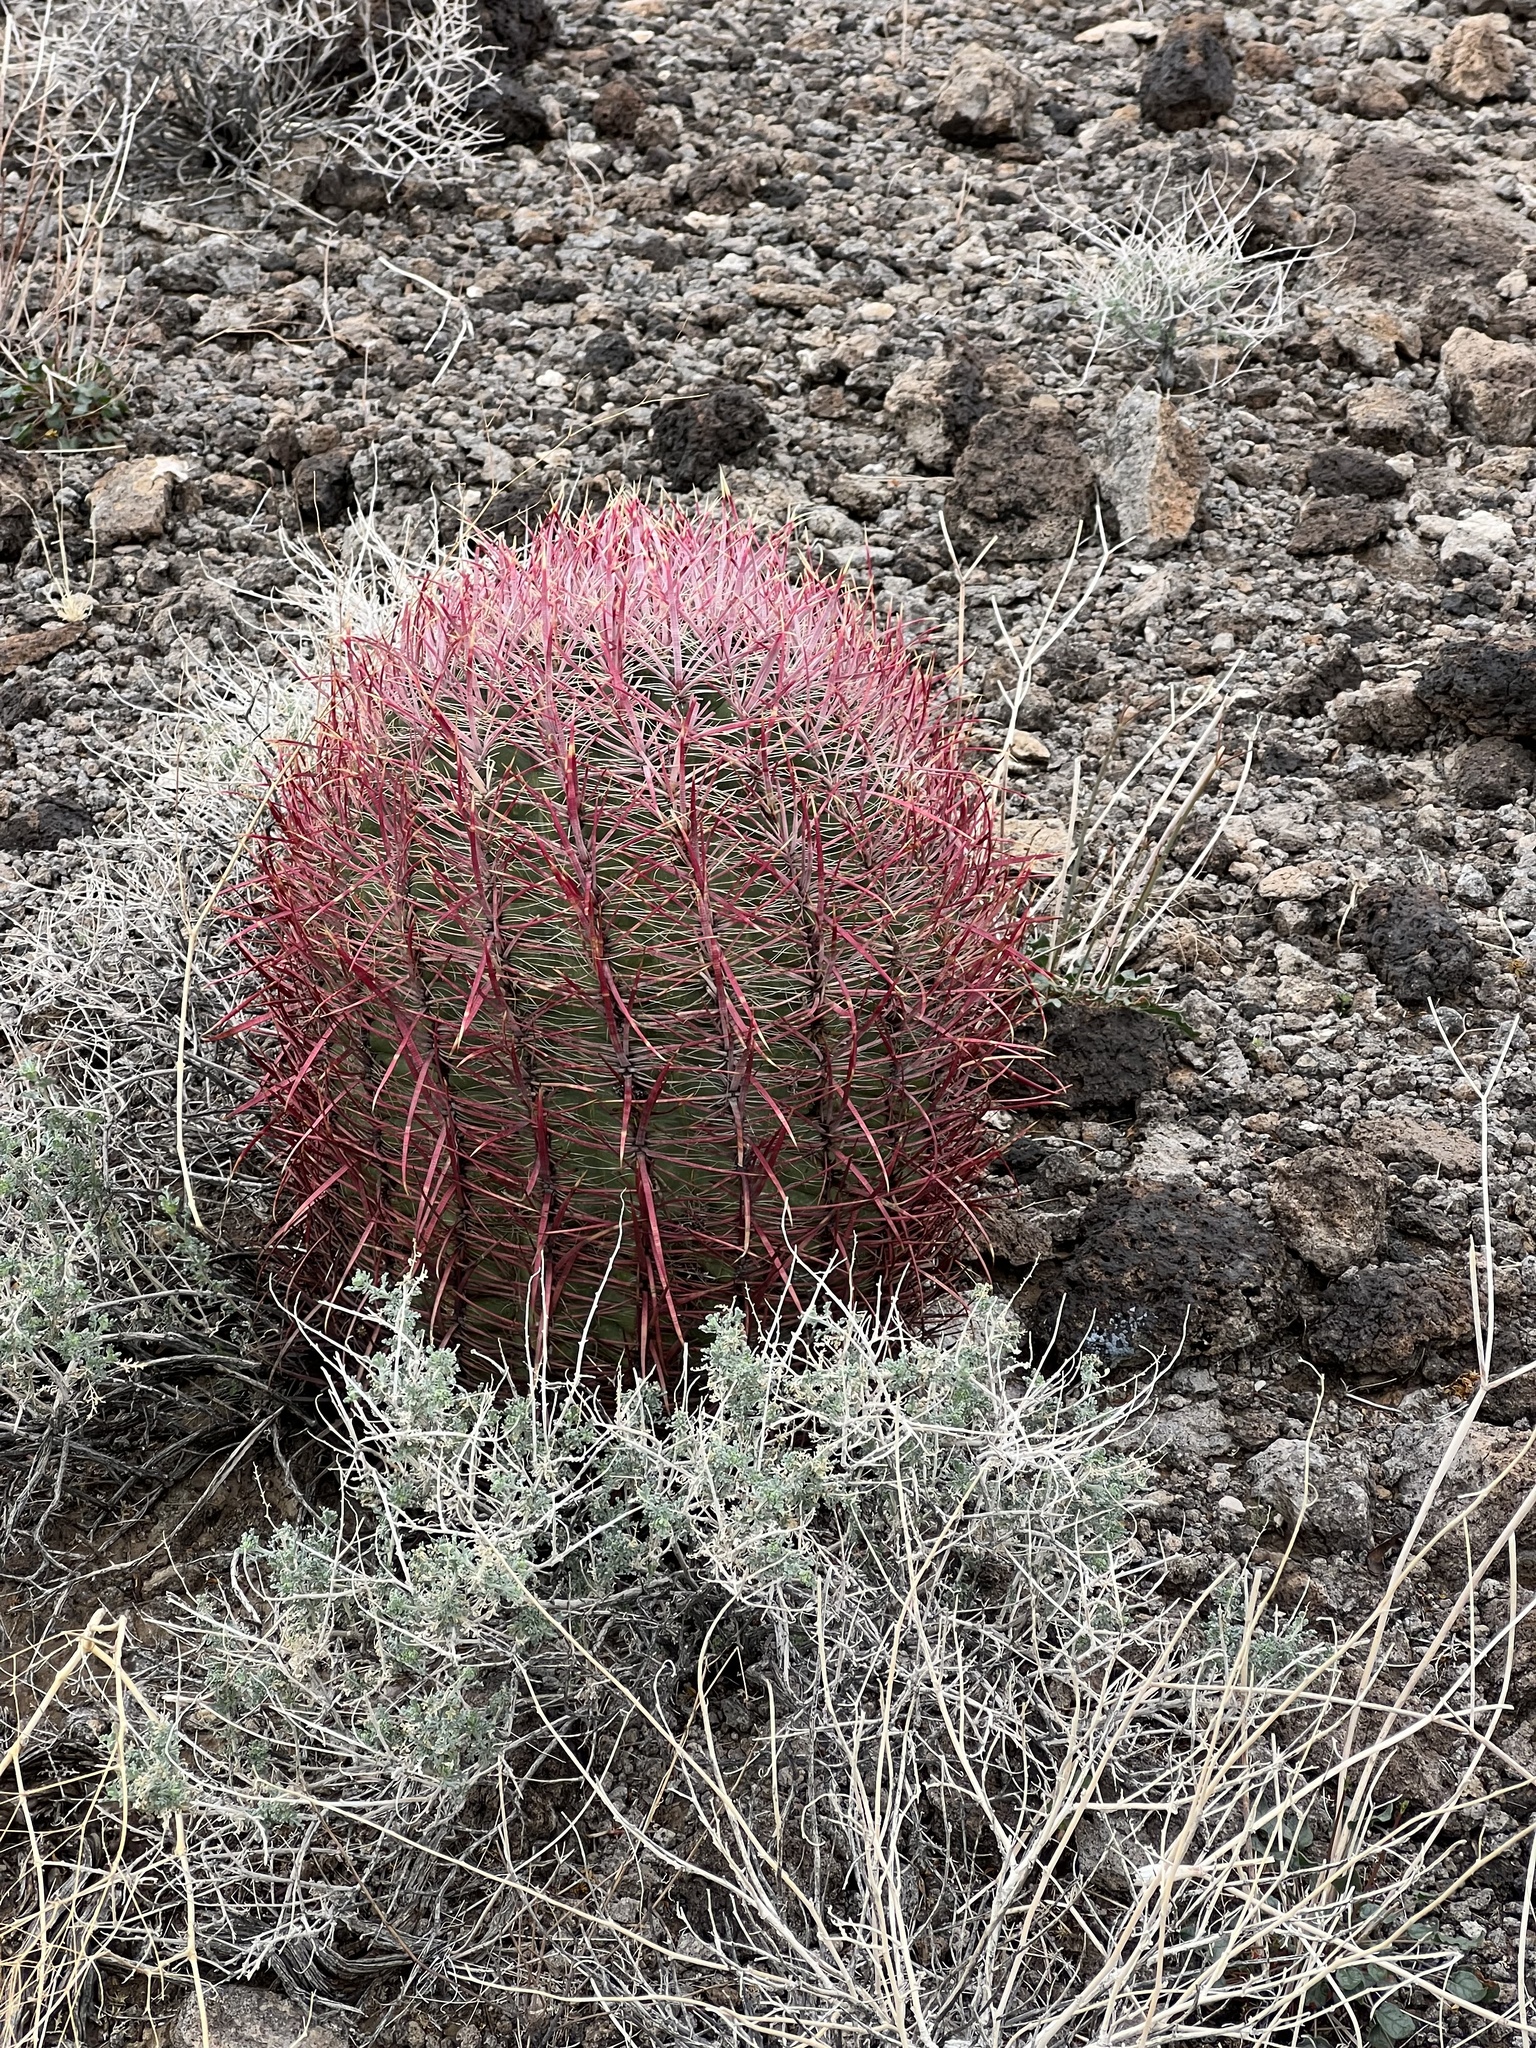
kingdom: Plantae
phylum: Tracheophyta
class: Magnoliopsida
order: Caryophyllales
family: Cactaceae
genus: Ferocactus
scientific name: Ferocactus cylindraceus
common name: California barrel cactus
